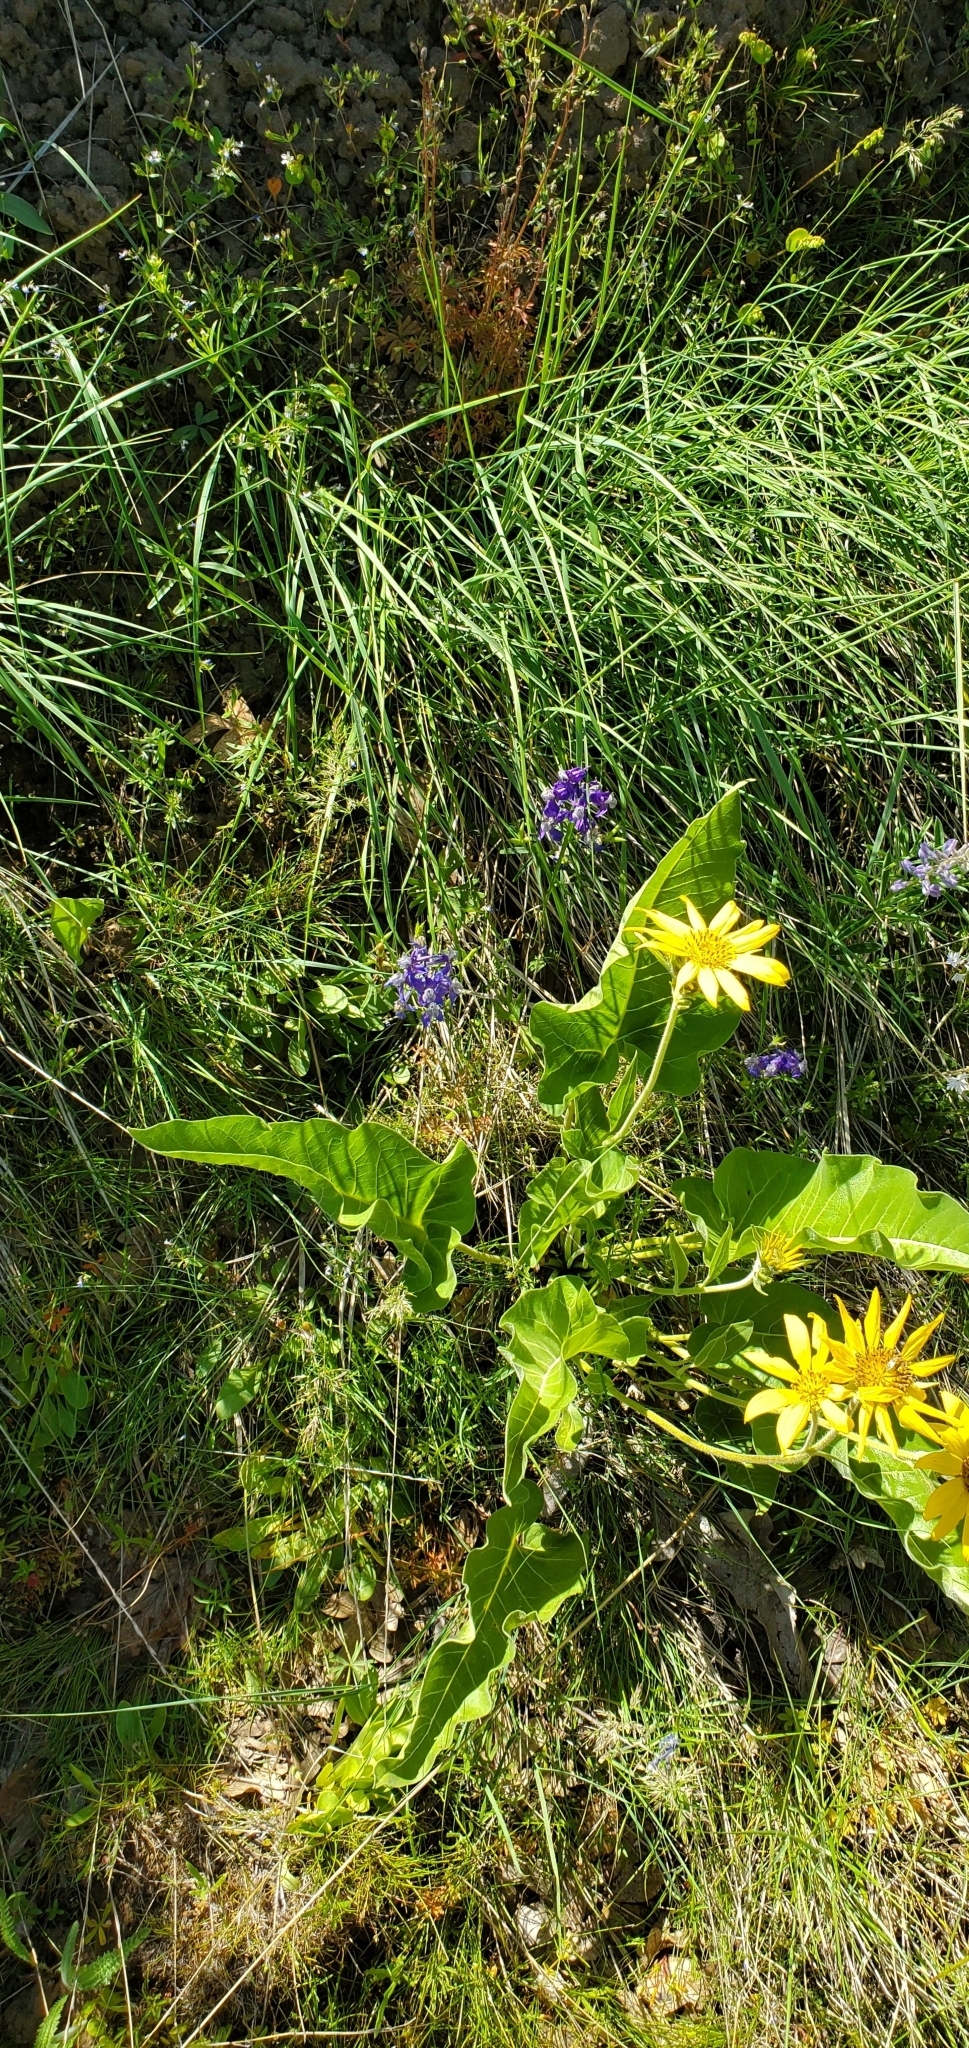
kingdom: Plantae
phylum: Tracheophyta
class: Magnoliopsida
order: Ranunculales
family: Ranunculaceae
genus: Delphinium
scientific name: Delphinium nuttallianum
